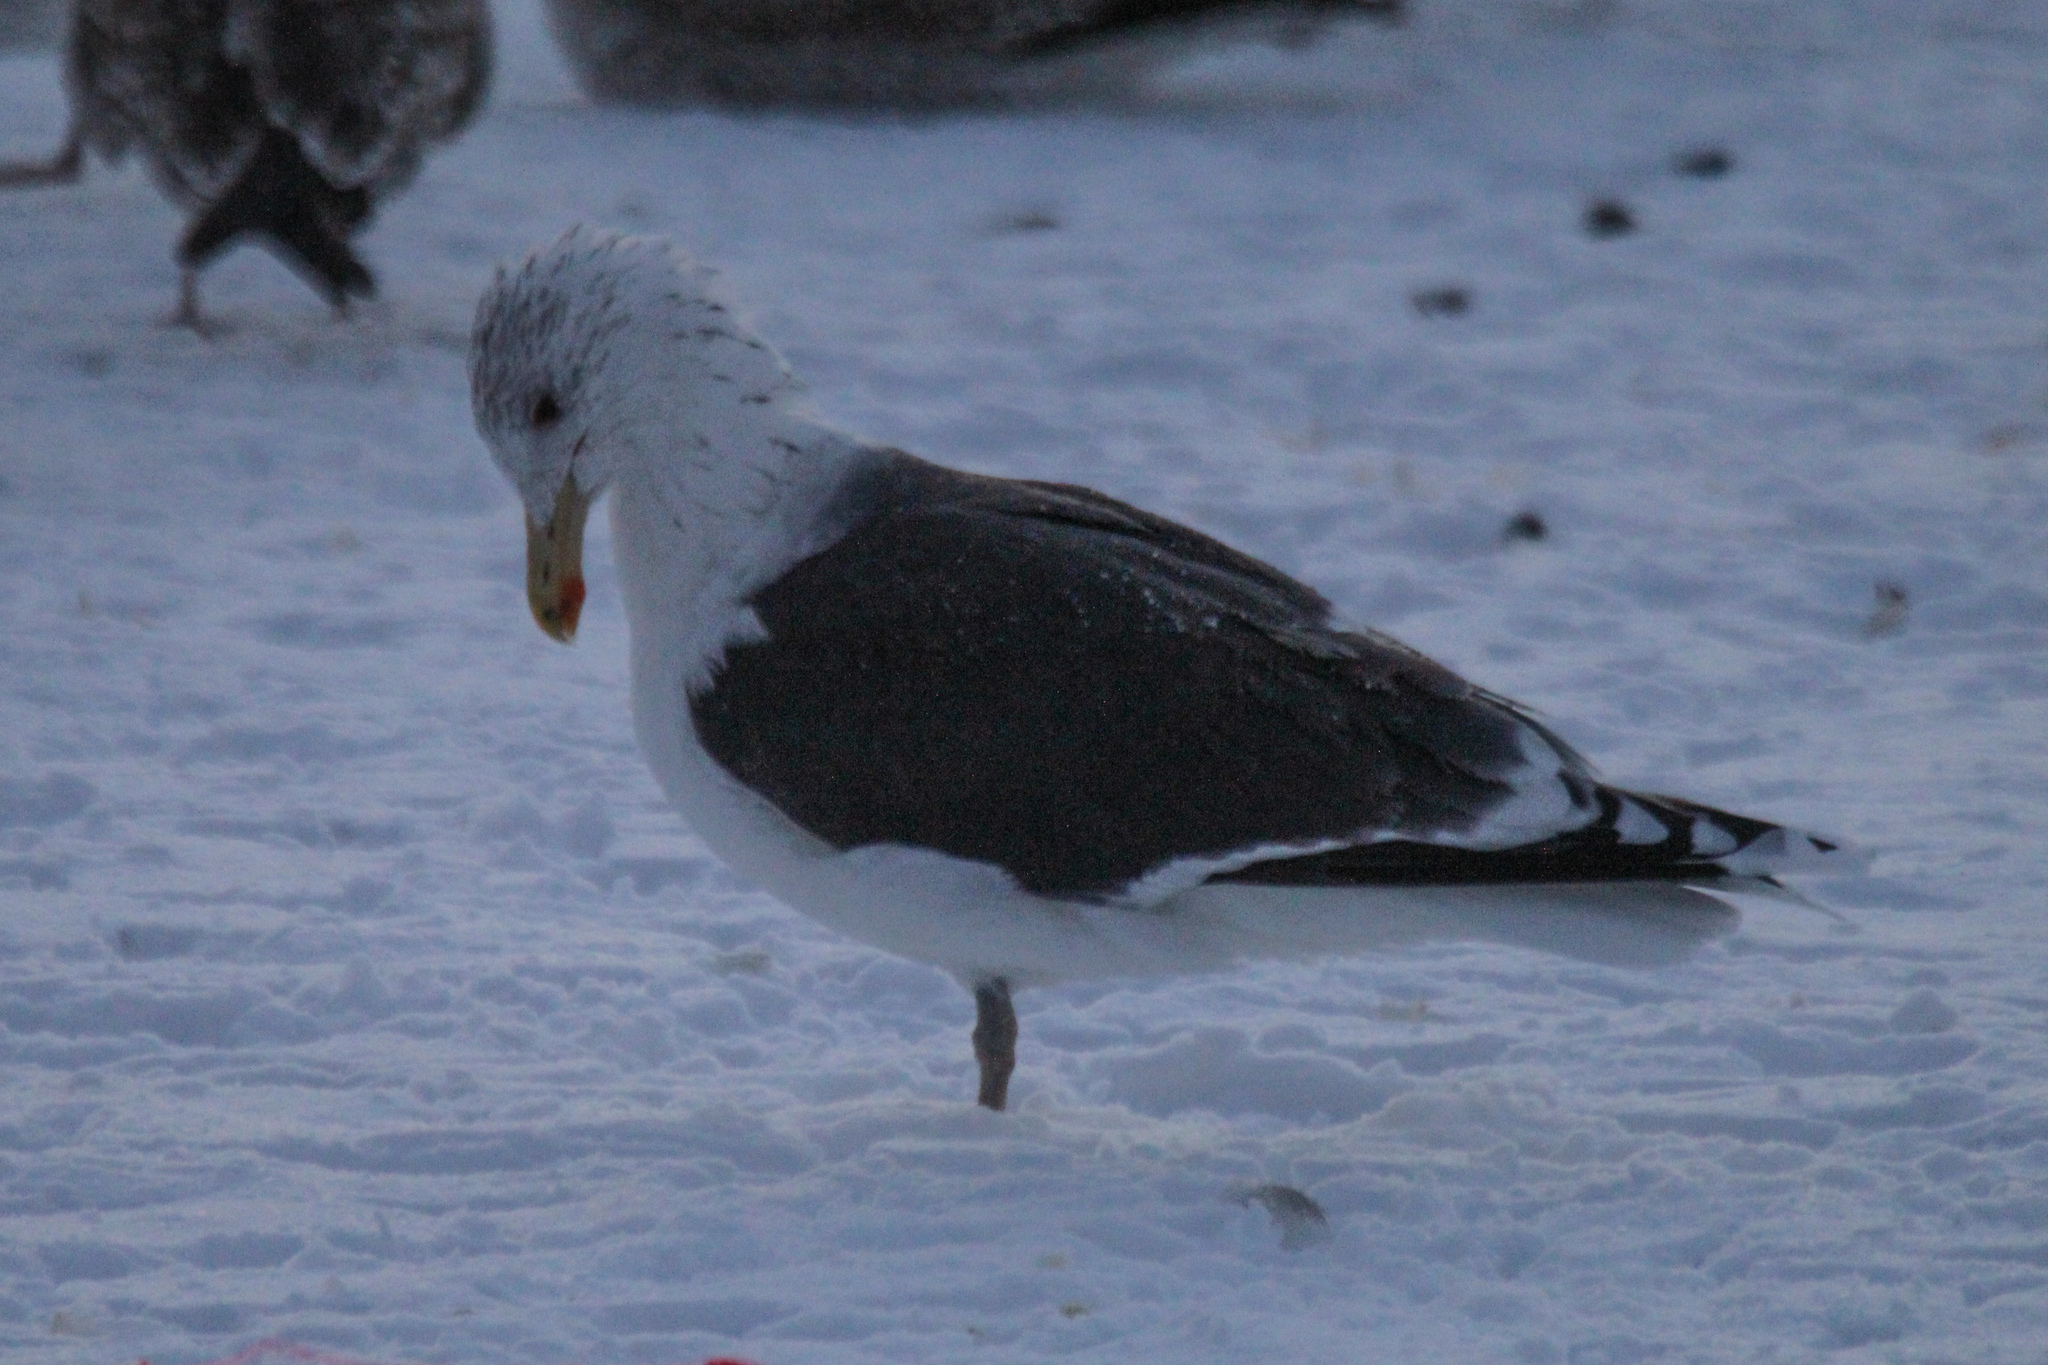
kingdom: Animalia
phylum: Chordata
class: Aves
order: Charadriiformes
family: Laridae
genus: Larus
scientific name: Larus marinus
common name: Great black-backed gull
